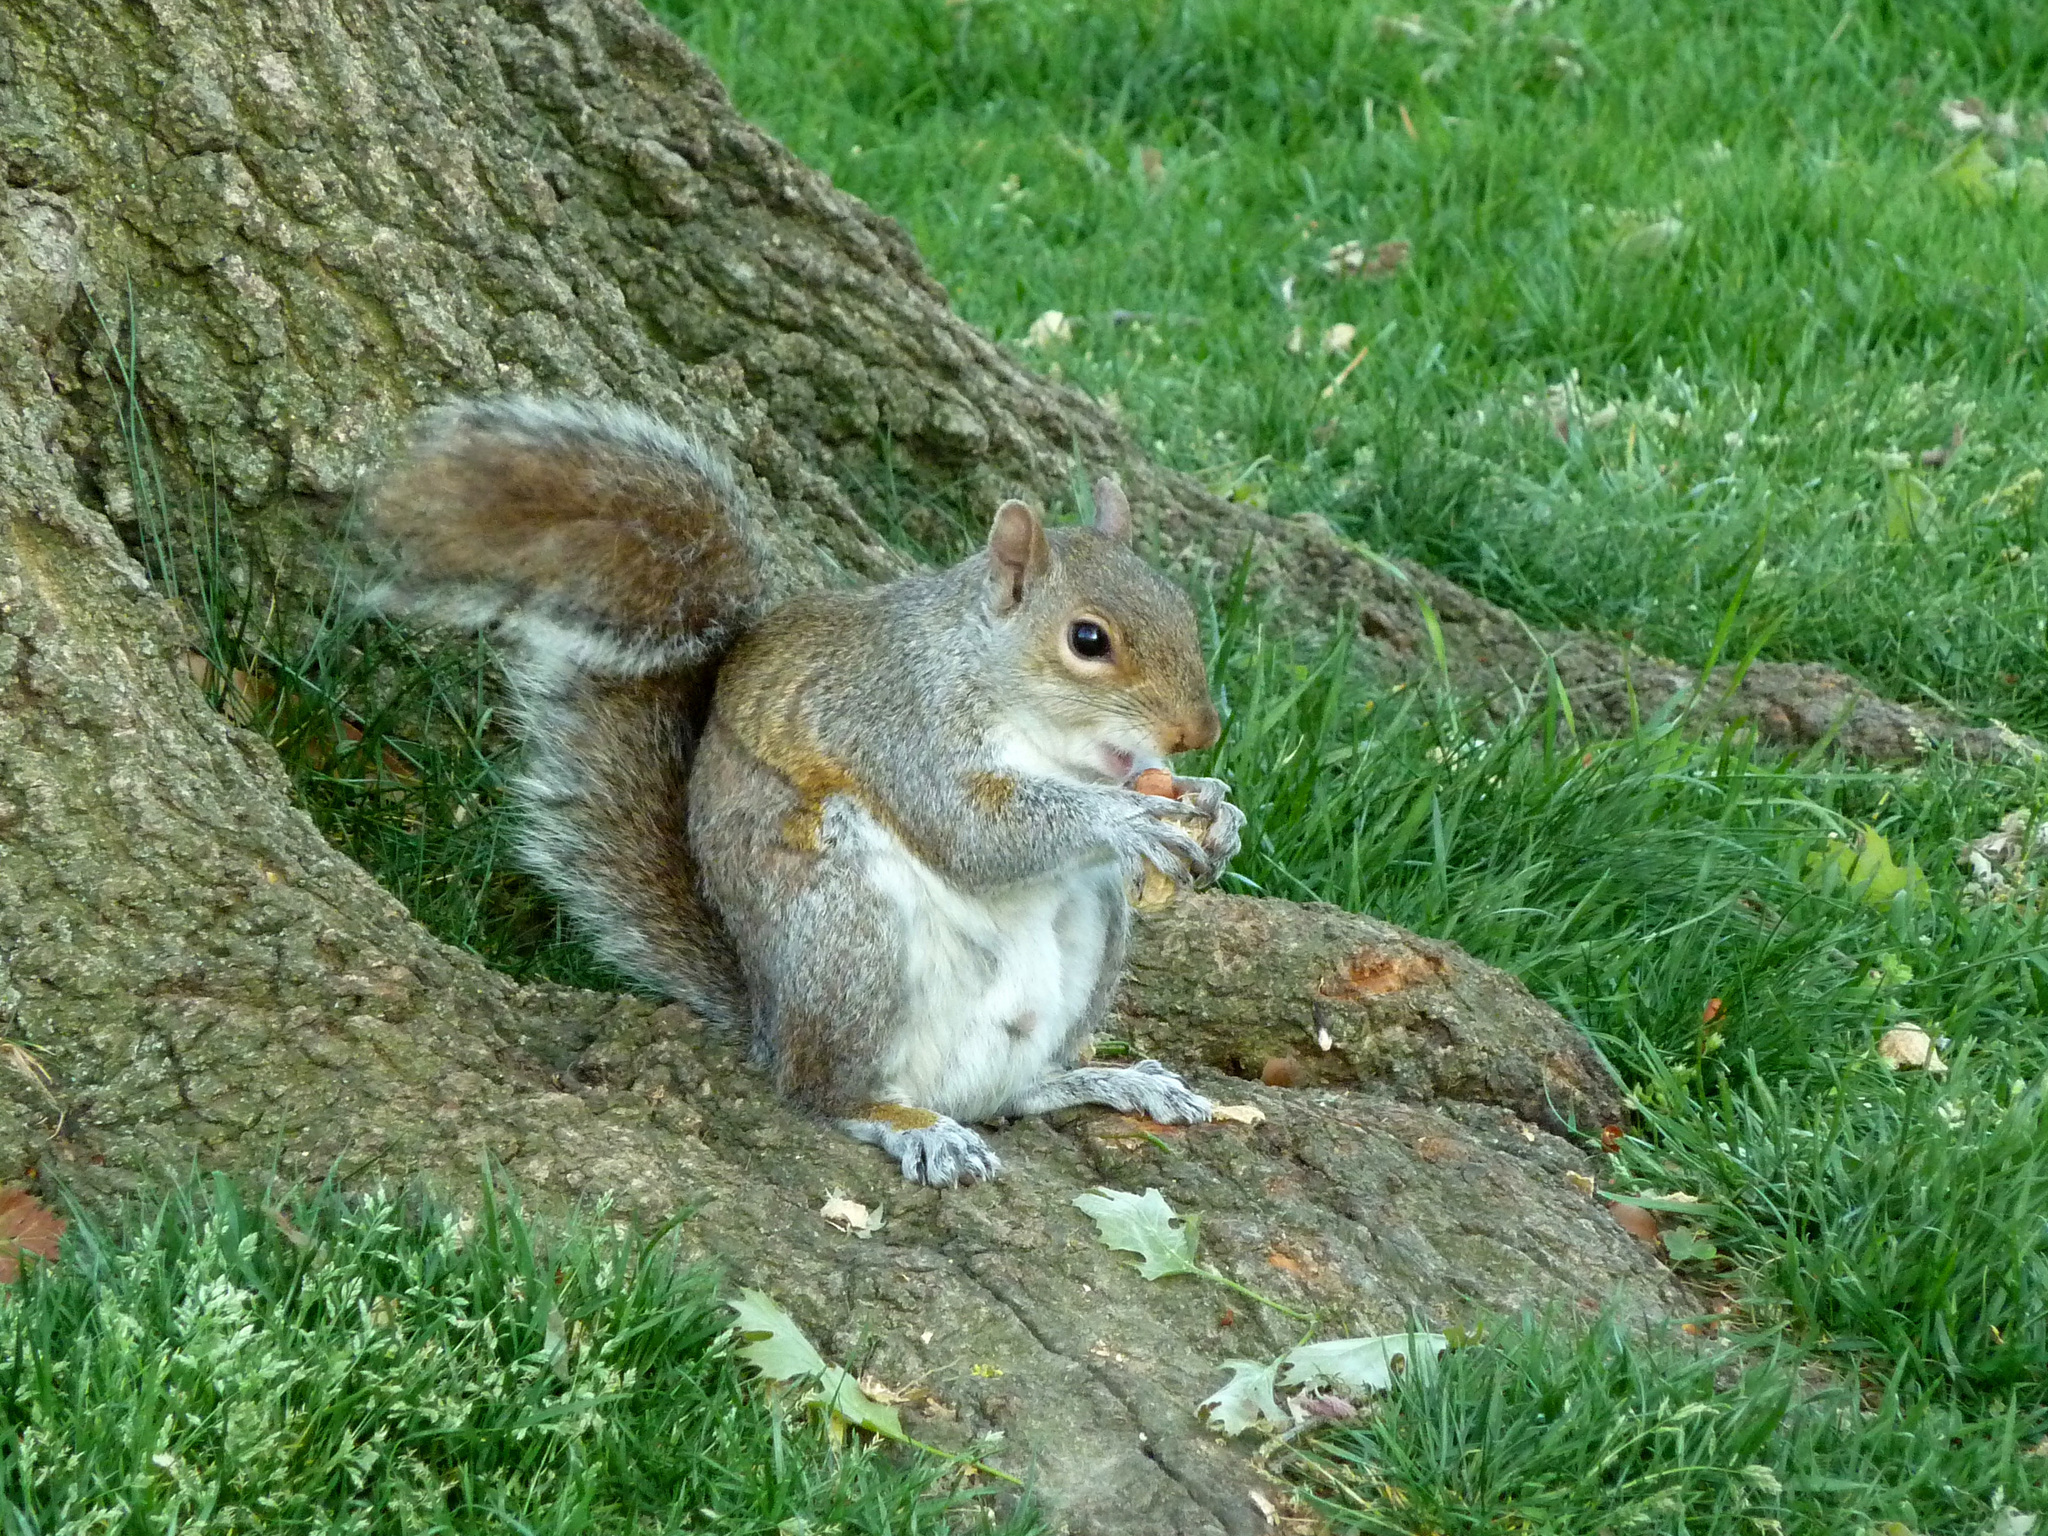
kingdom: Animalia
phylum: Chordata
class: Mammalia
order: Rodentia
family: Sciuridae
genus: Sciurus
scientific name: Sciurus carolinensis
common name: Eastern gray squirrel
